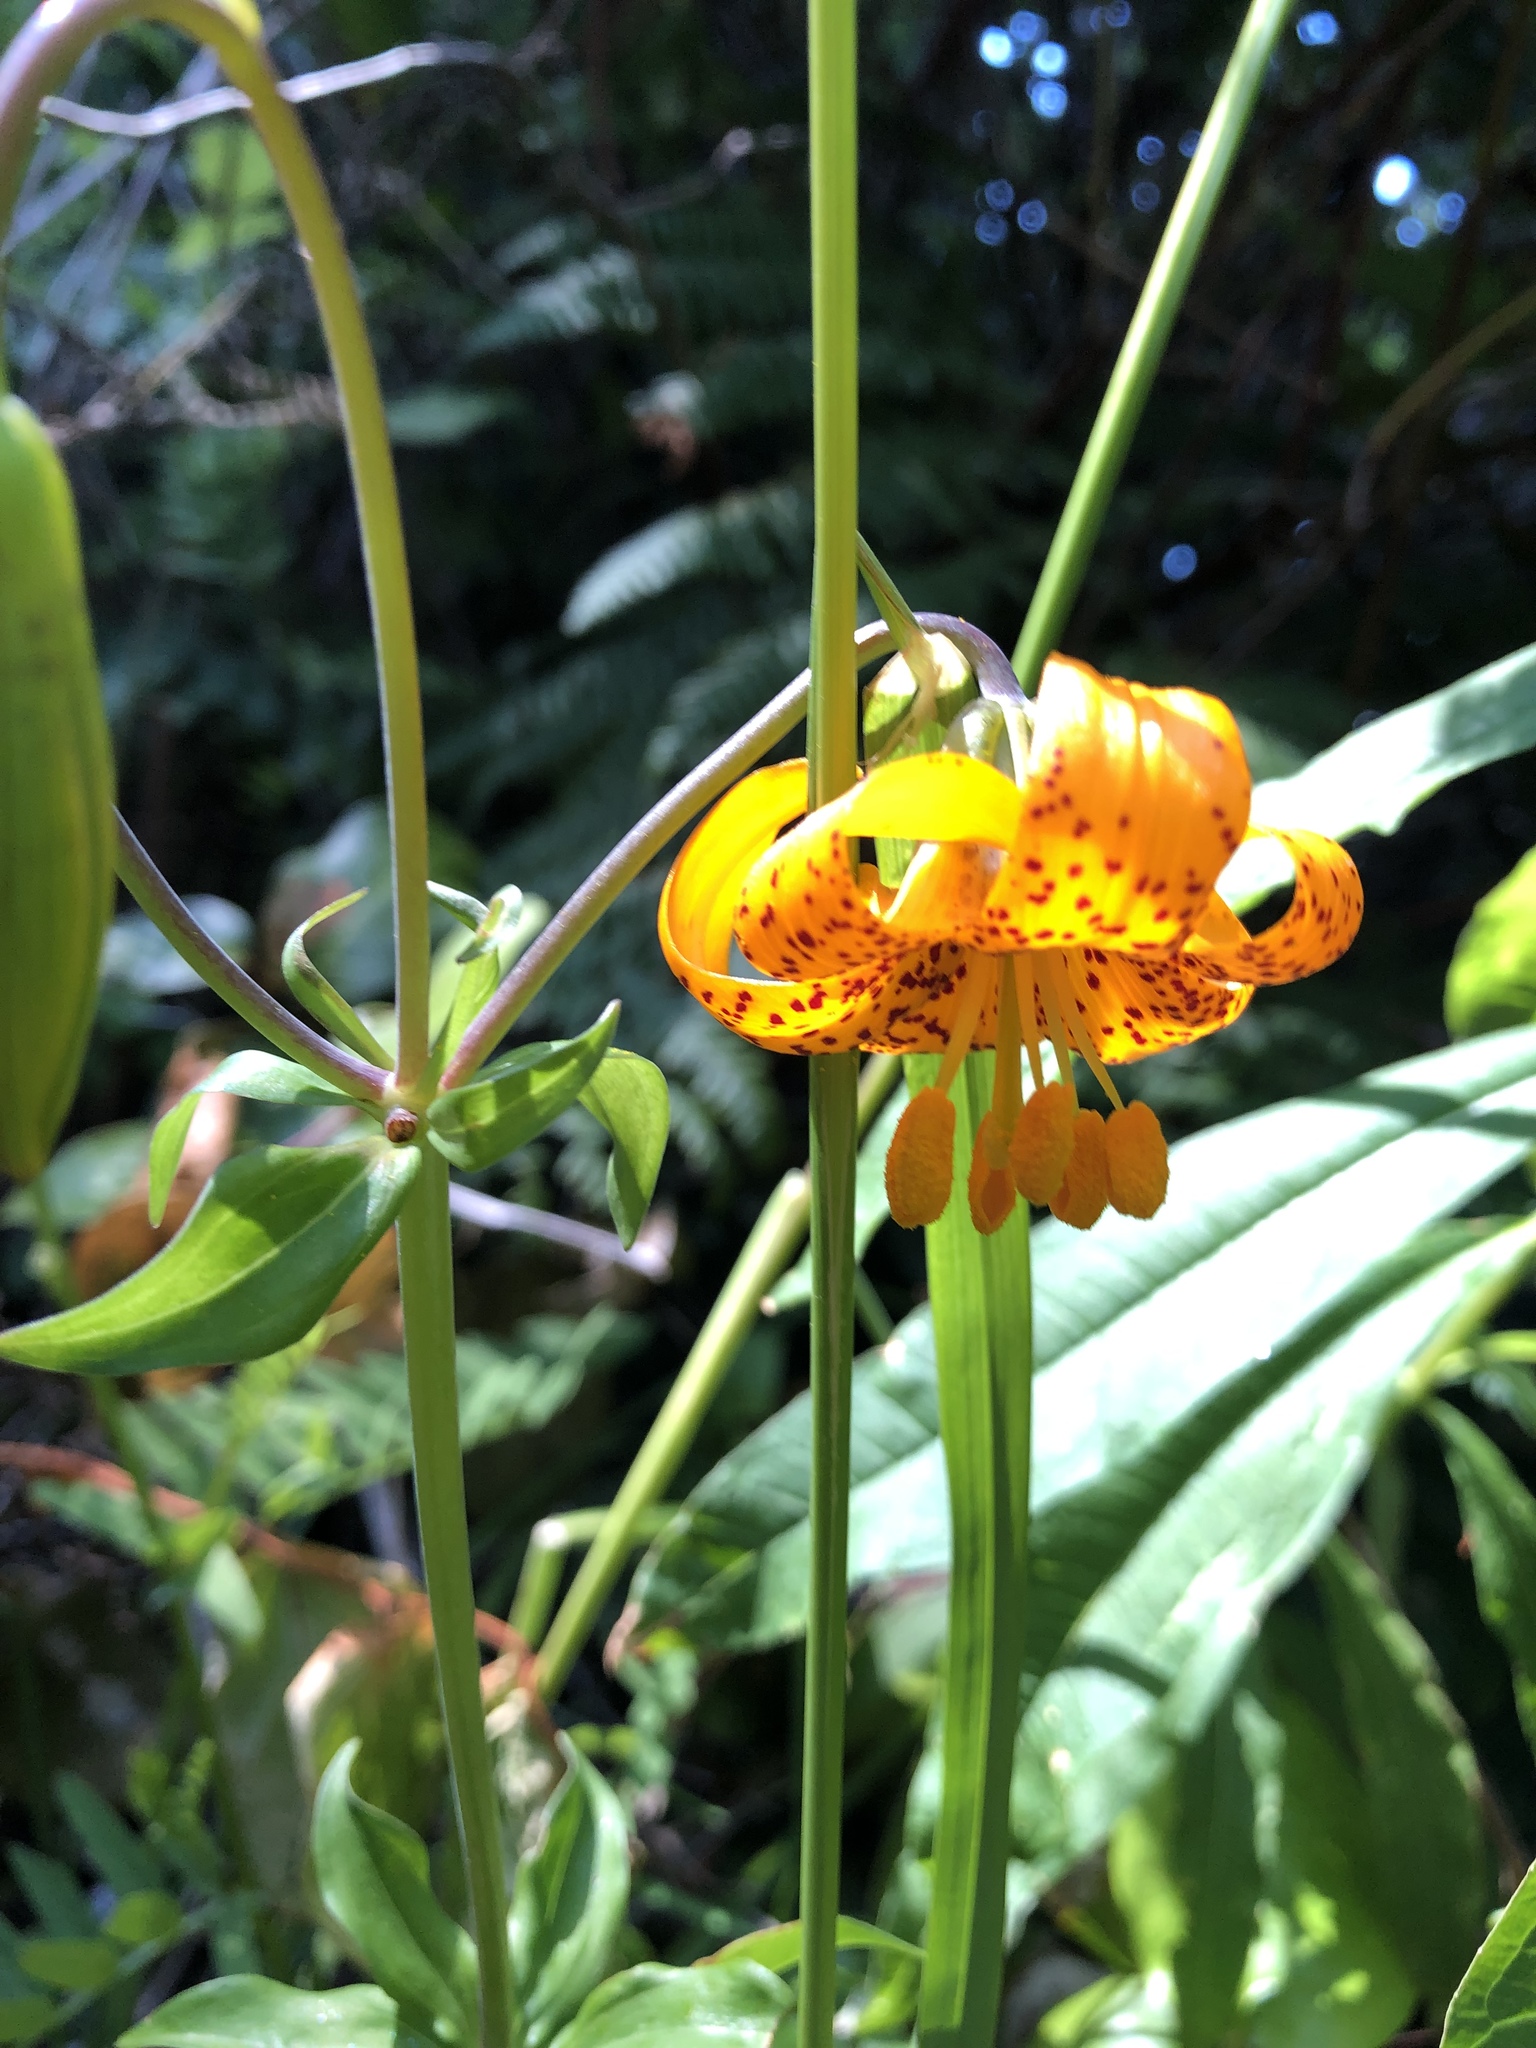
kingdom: Plantae
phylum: Tracheophyta
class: Liliopsida
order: Liliales
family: Liliaceae
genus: Lilium
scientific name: Lilium columbianum
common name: Columbia lily
